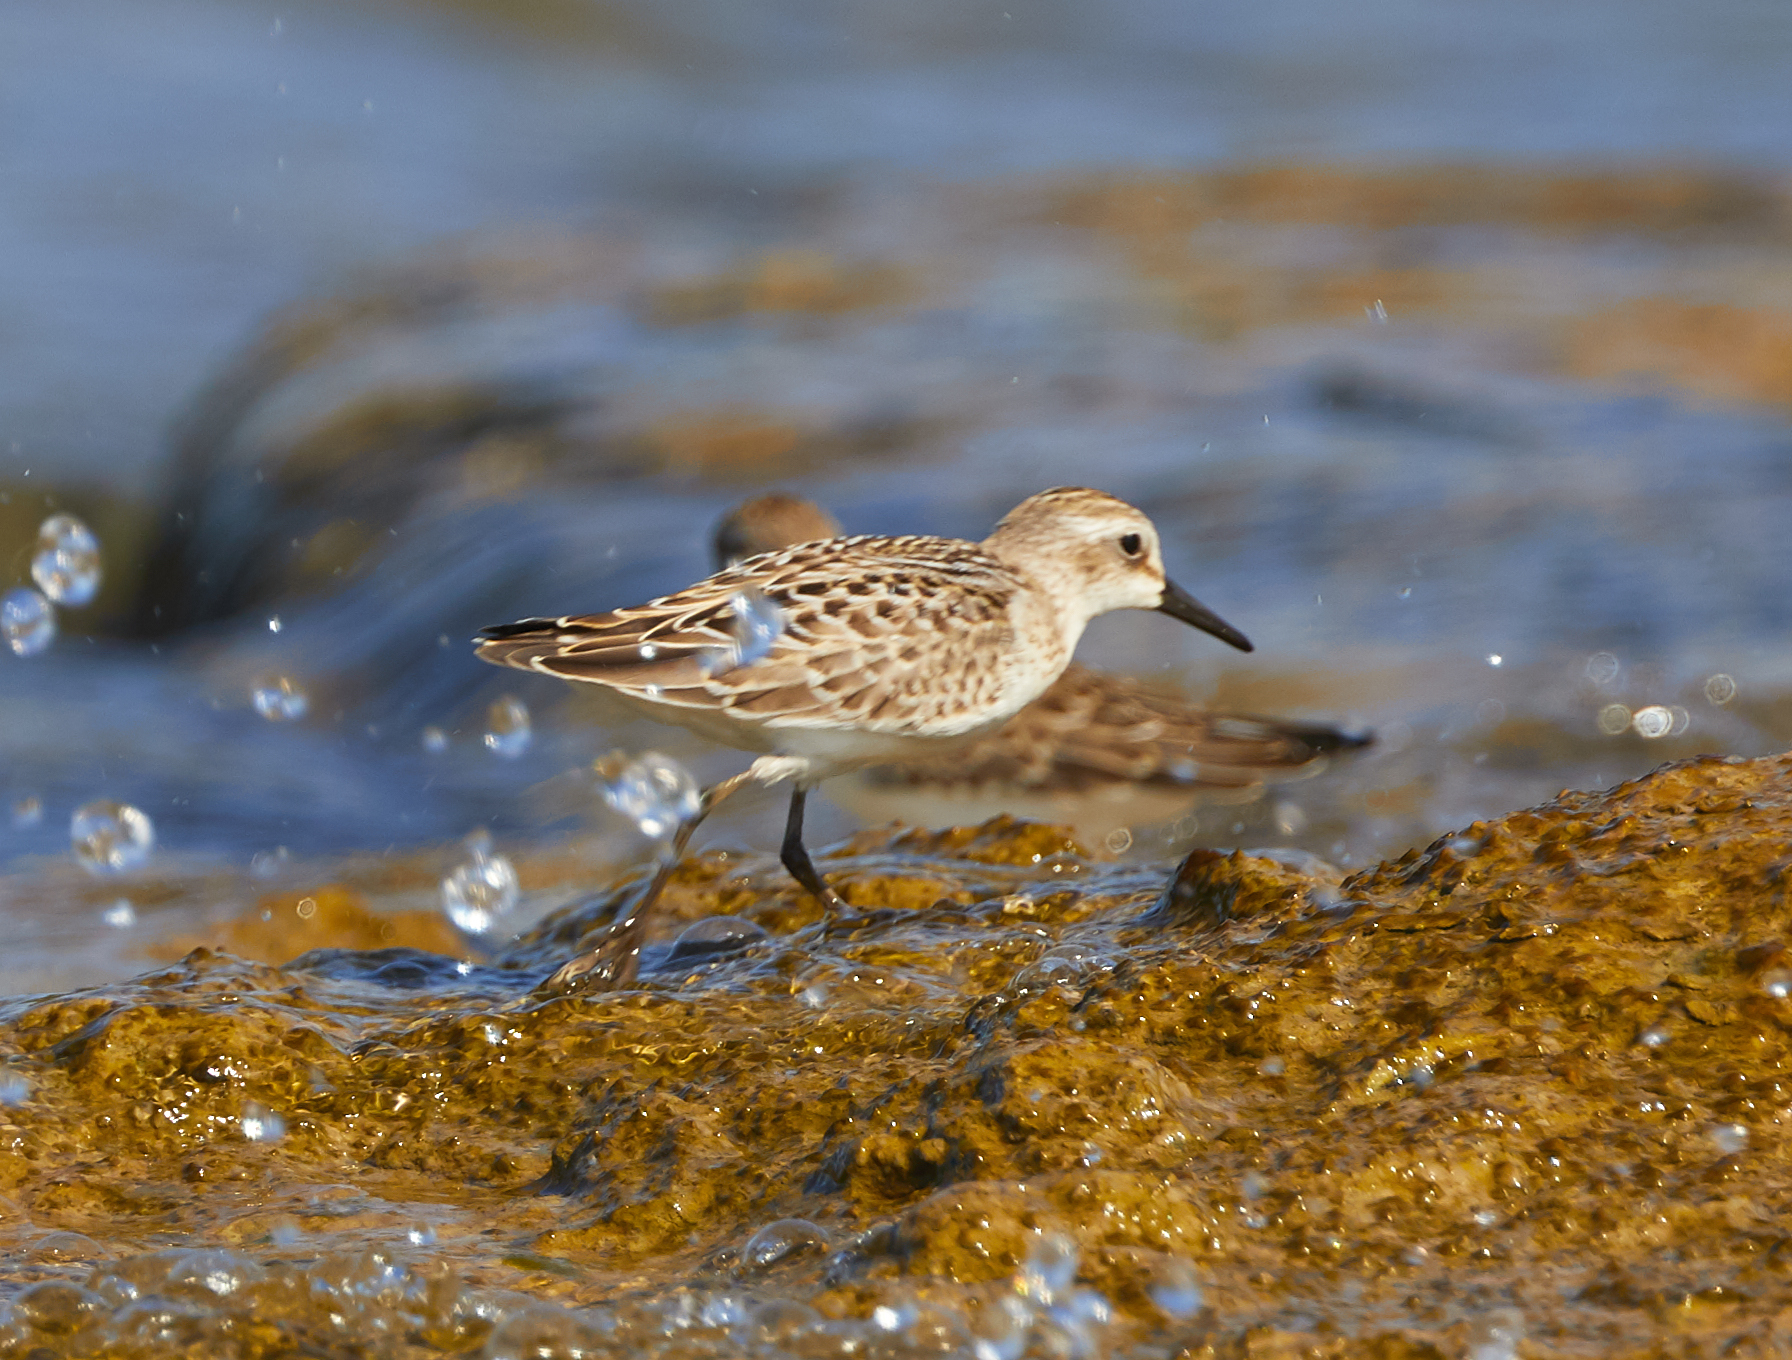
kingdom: Animalia
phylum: Chordata
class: Aves
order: Charadriiformes
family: Scolopacidae
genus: Calidris
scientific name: Calidris pusilla
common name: Semipalmated sandpiper
